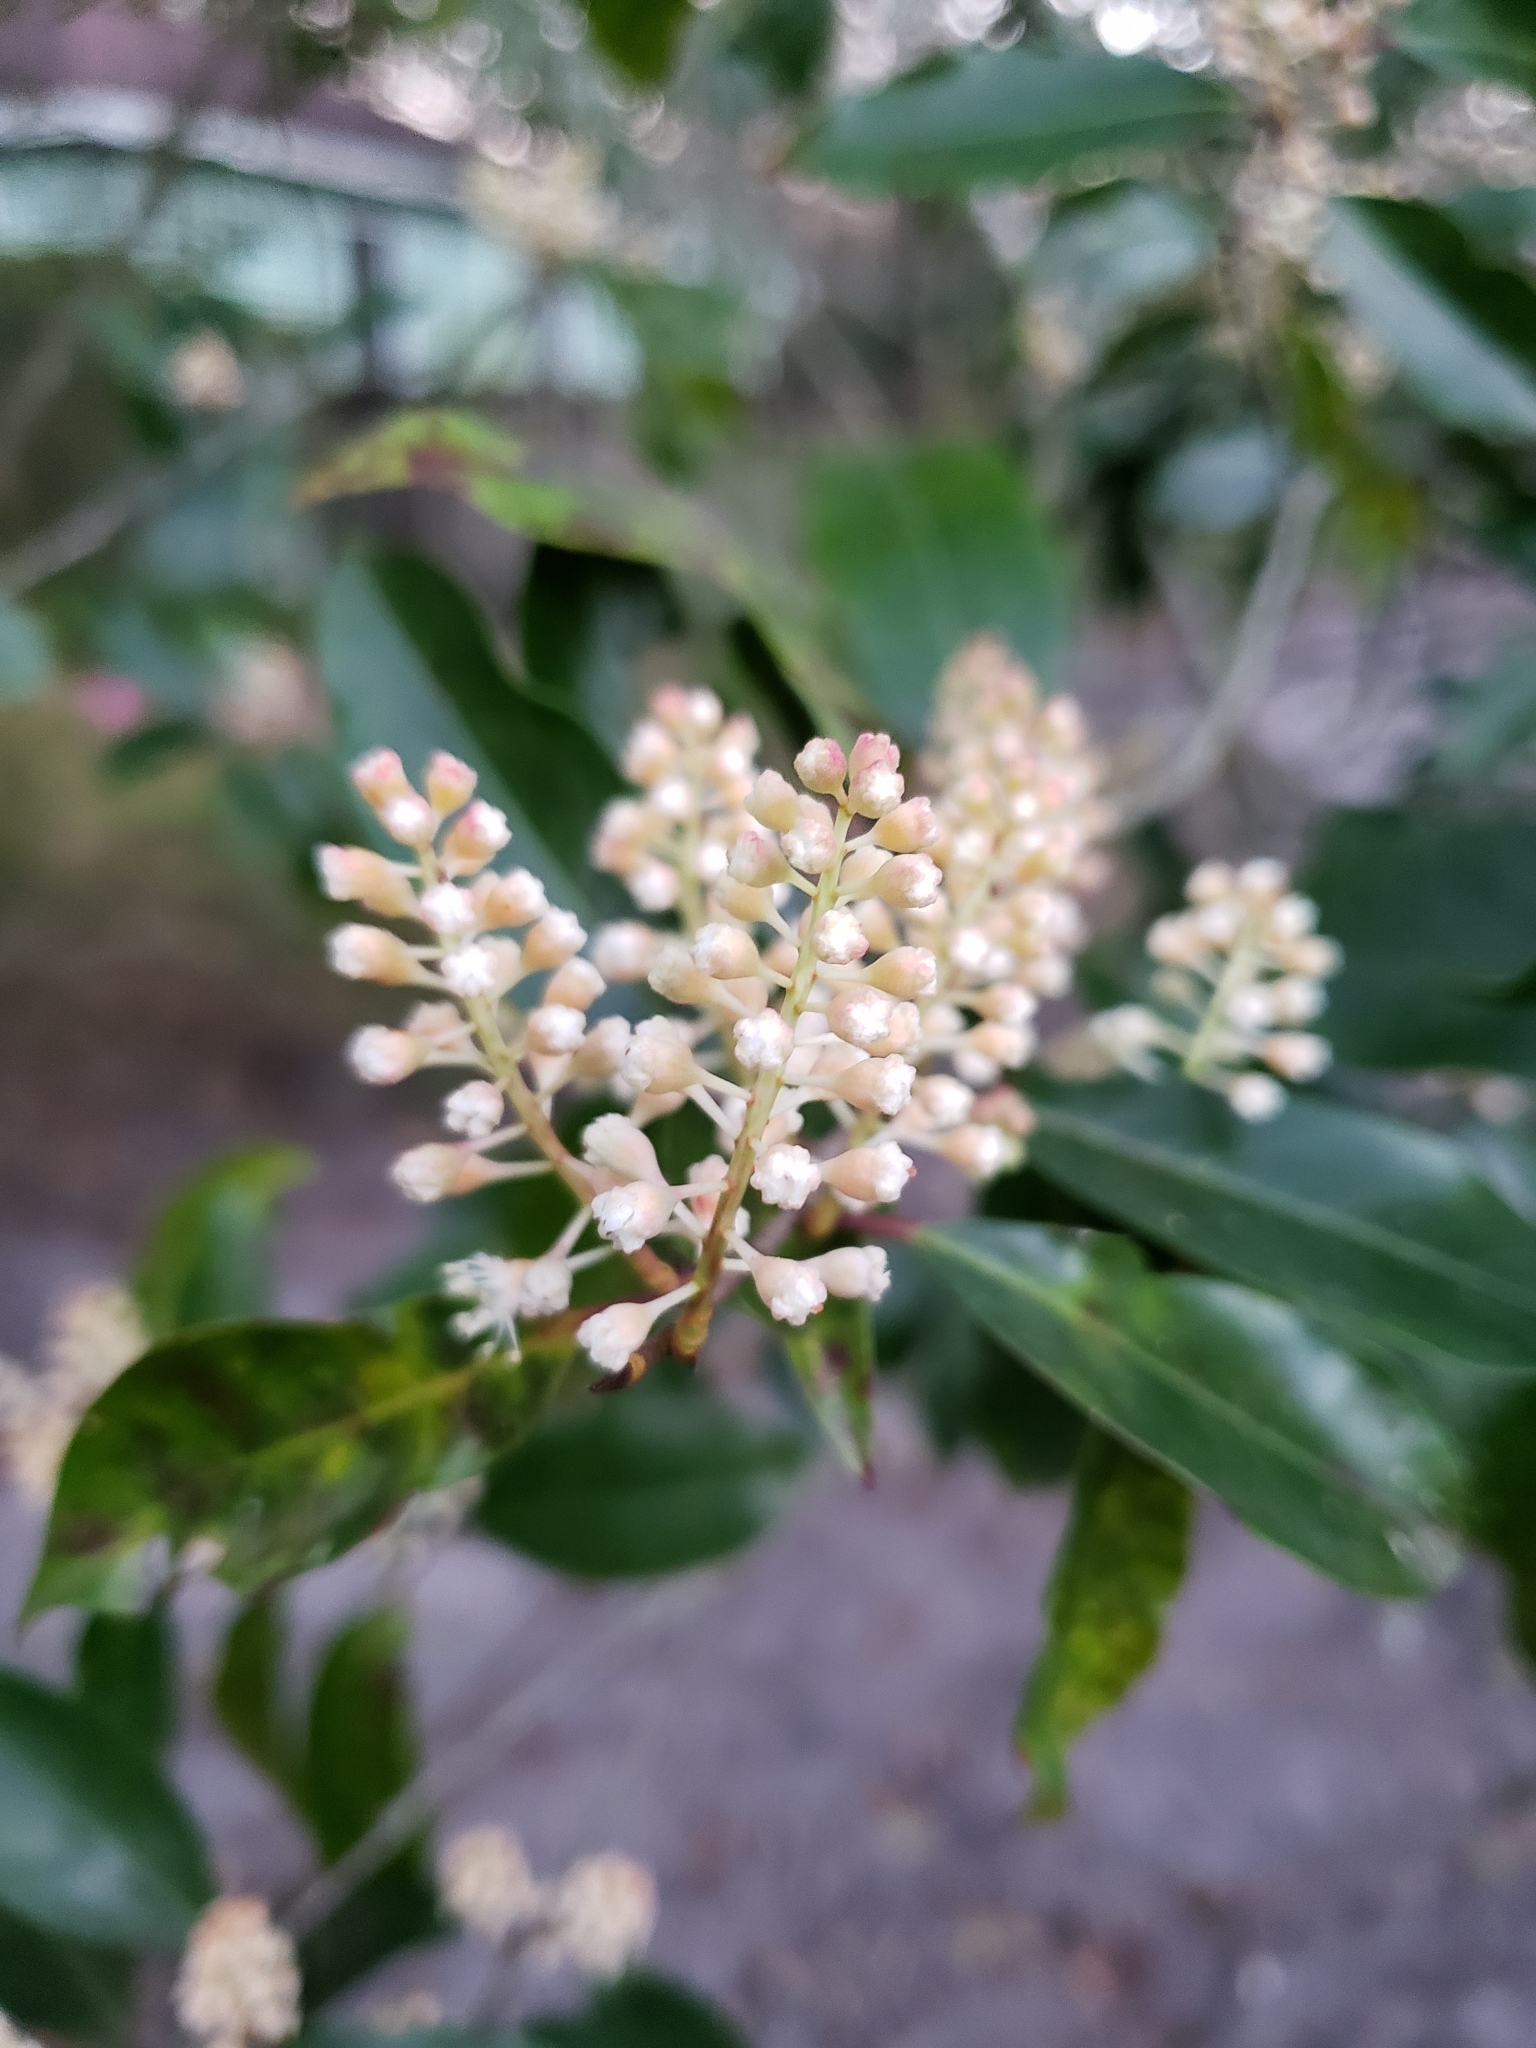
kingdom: Plantae
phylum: Tracheophyta
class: Magnoliopsida
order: Rosales
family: Rosaceae
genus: Prunus
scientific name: Prunus caroliniana
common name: Carolina laurel cherry
